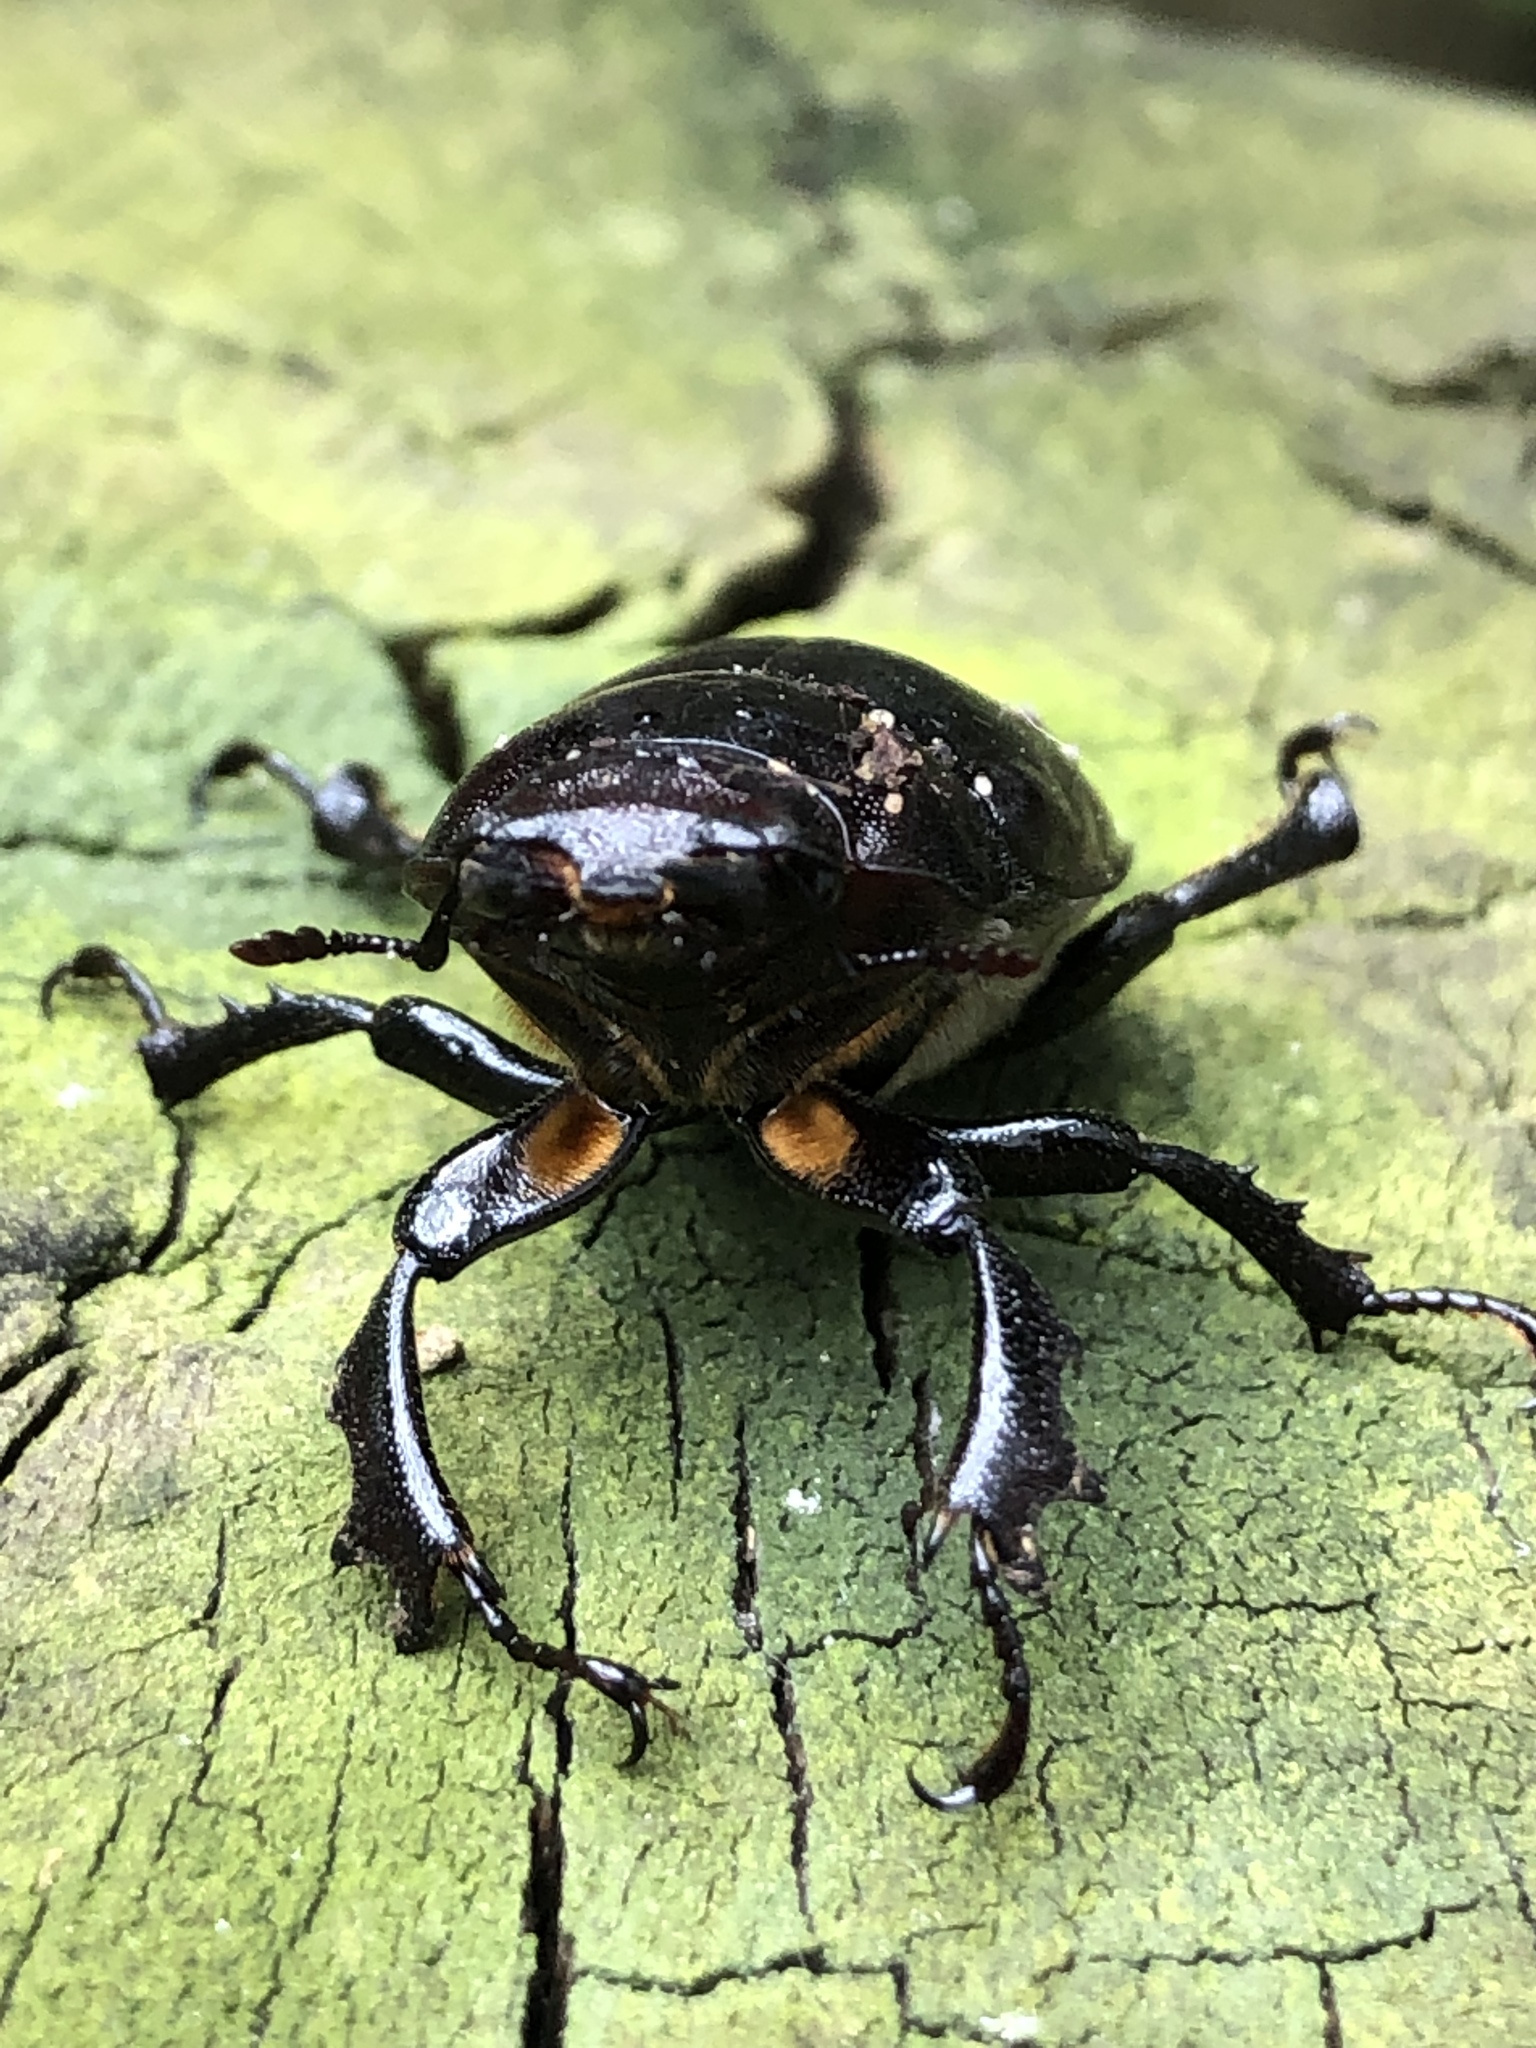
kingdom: Animalia
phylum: Arthropoda
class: Insecta
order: Coleoptera
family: Lucanidae
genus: Lucanus
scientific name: Lucanus placidus
